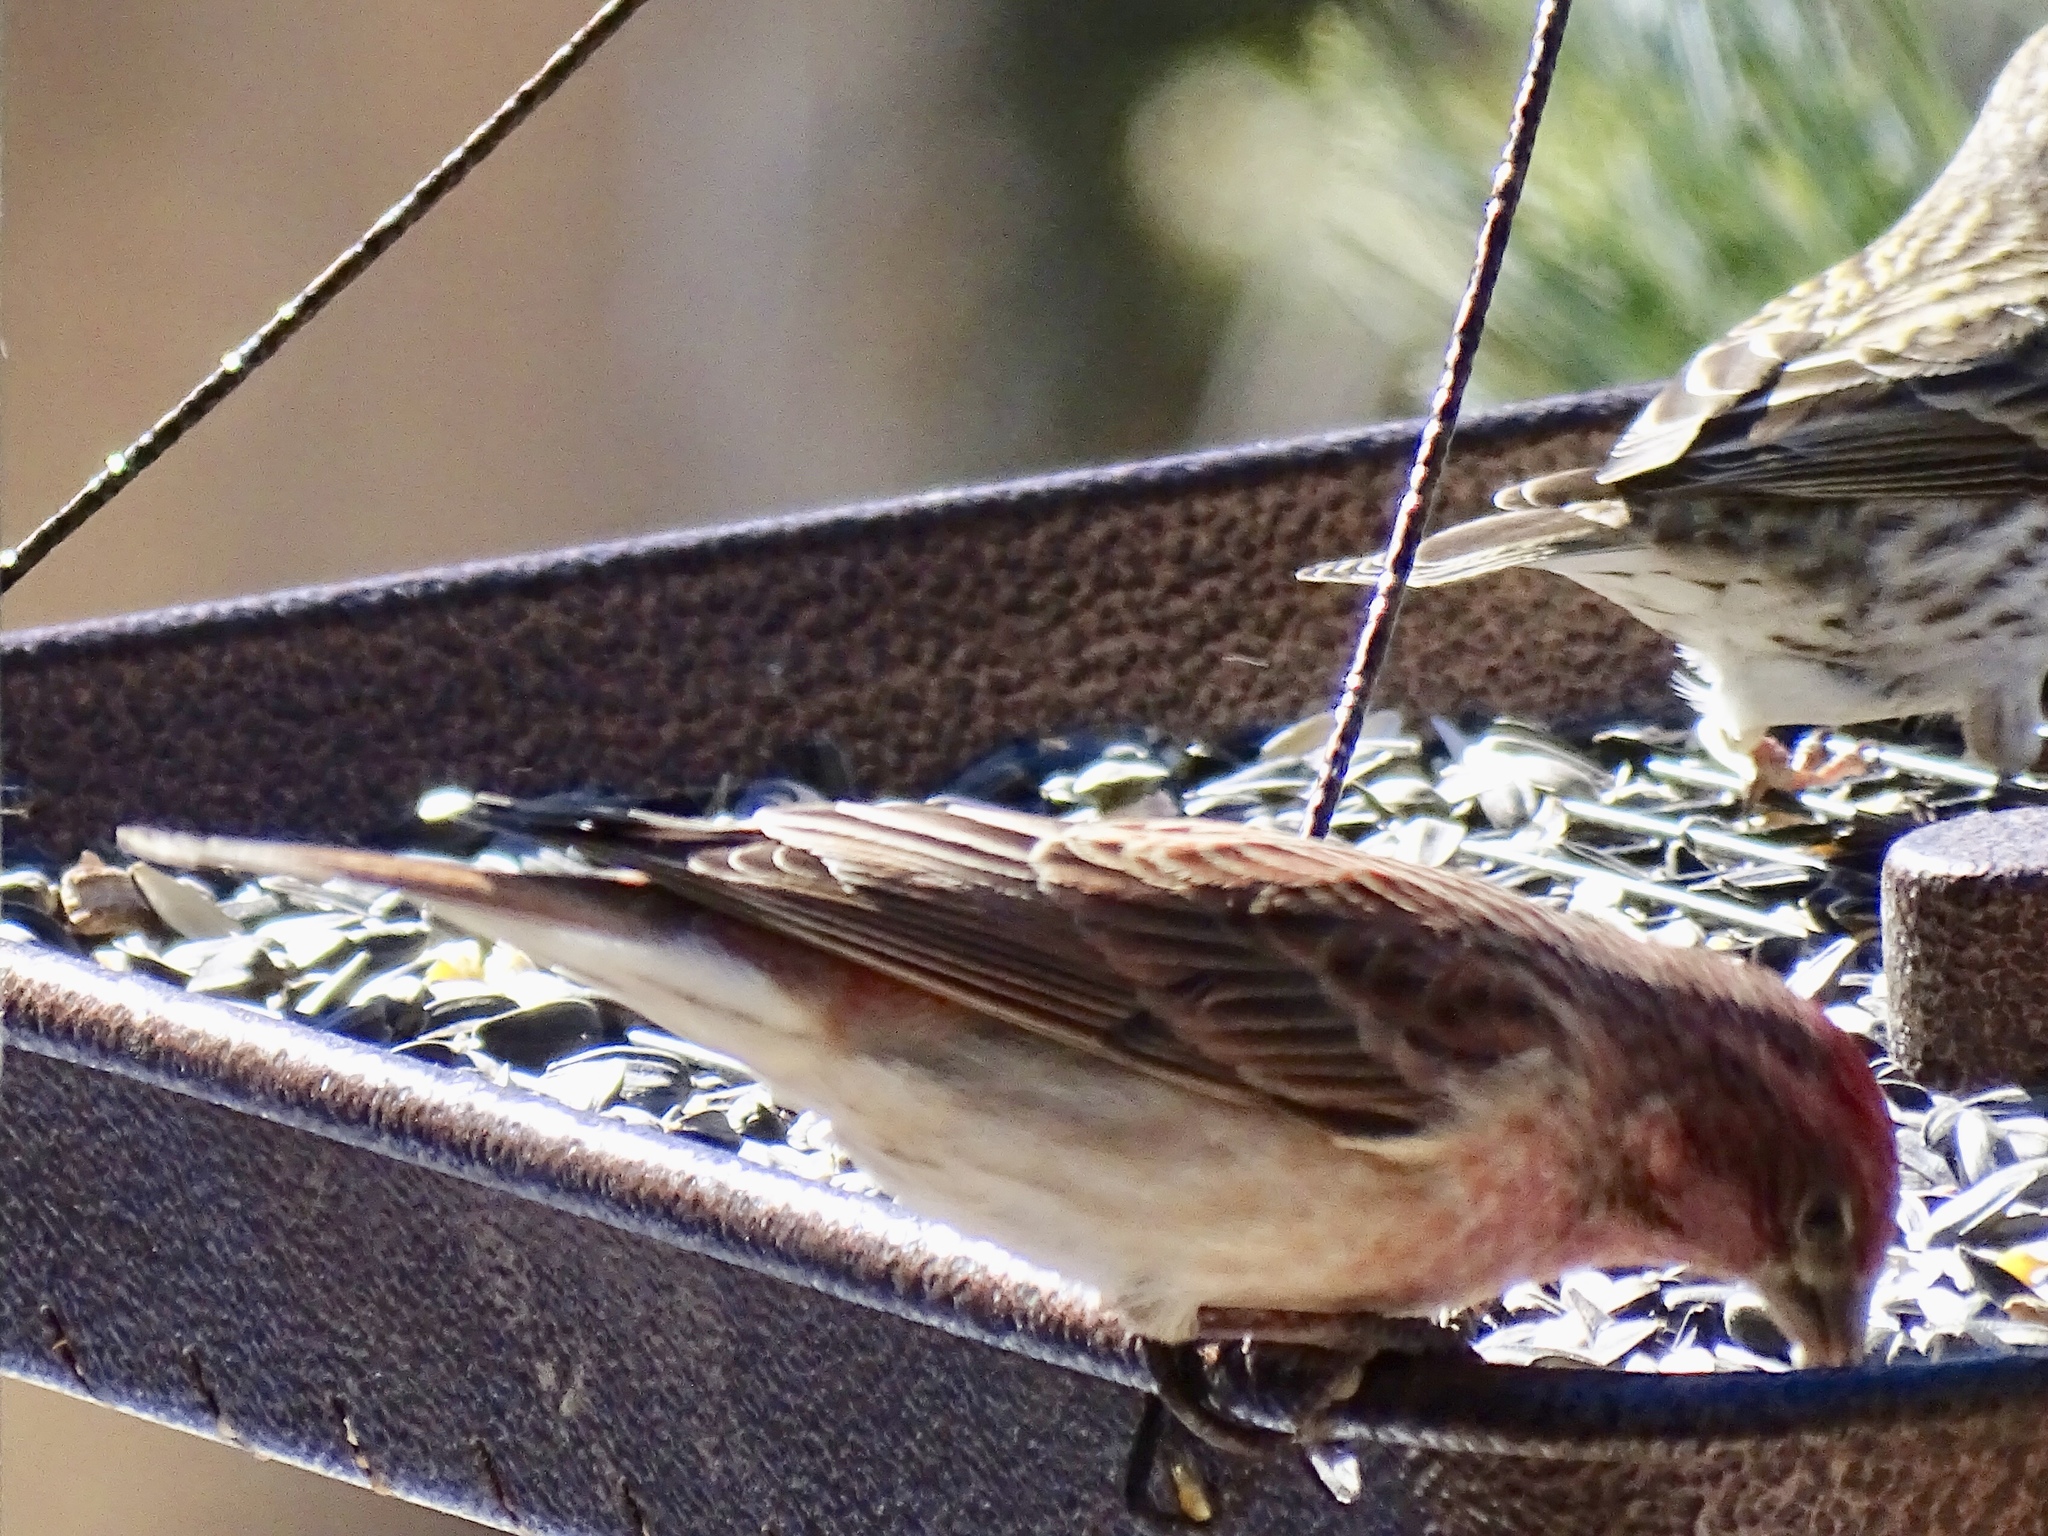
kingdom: Animalia
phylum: Chordata
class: Aves
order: Passeriformes
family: Fringillidae
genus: Haemorhous
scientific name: Haemorhous cassinii
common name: Cassin's finch
